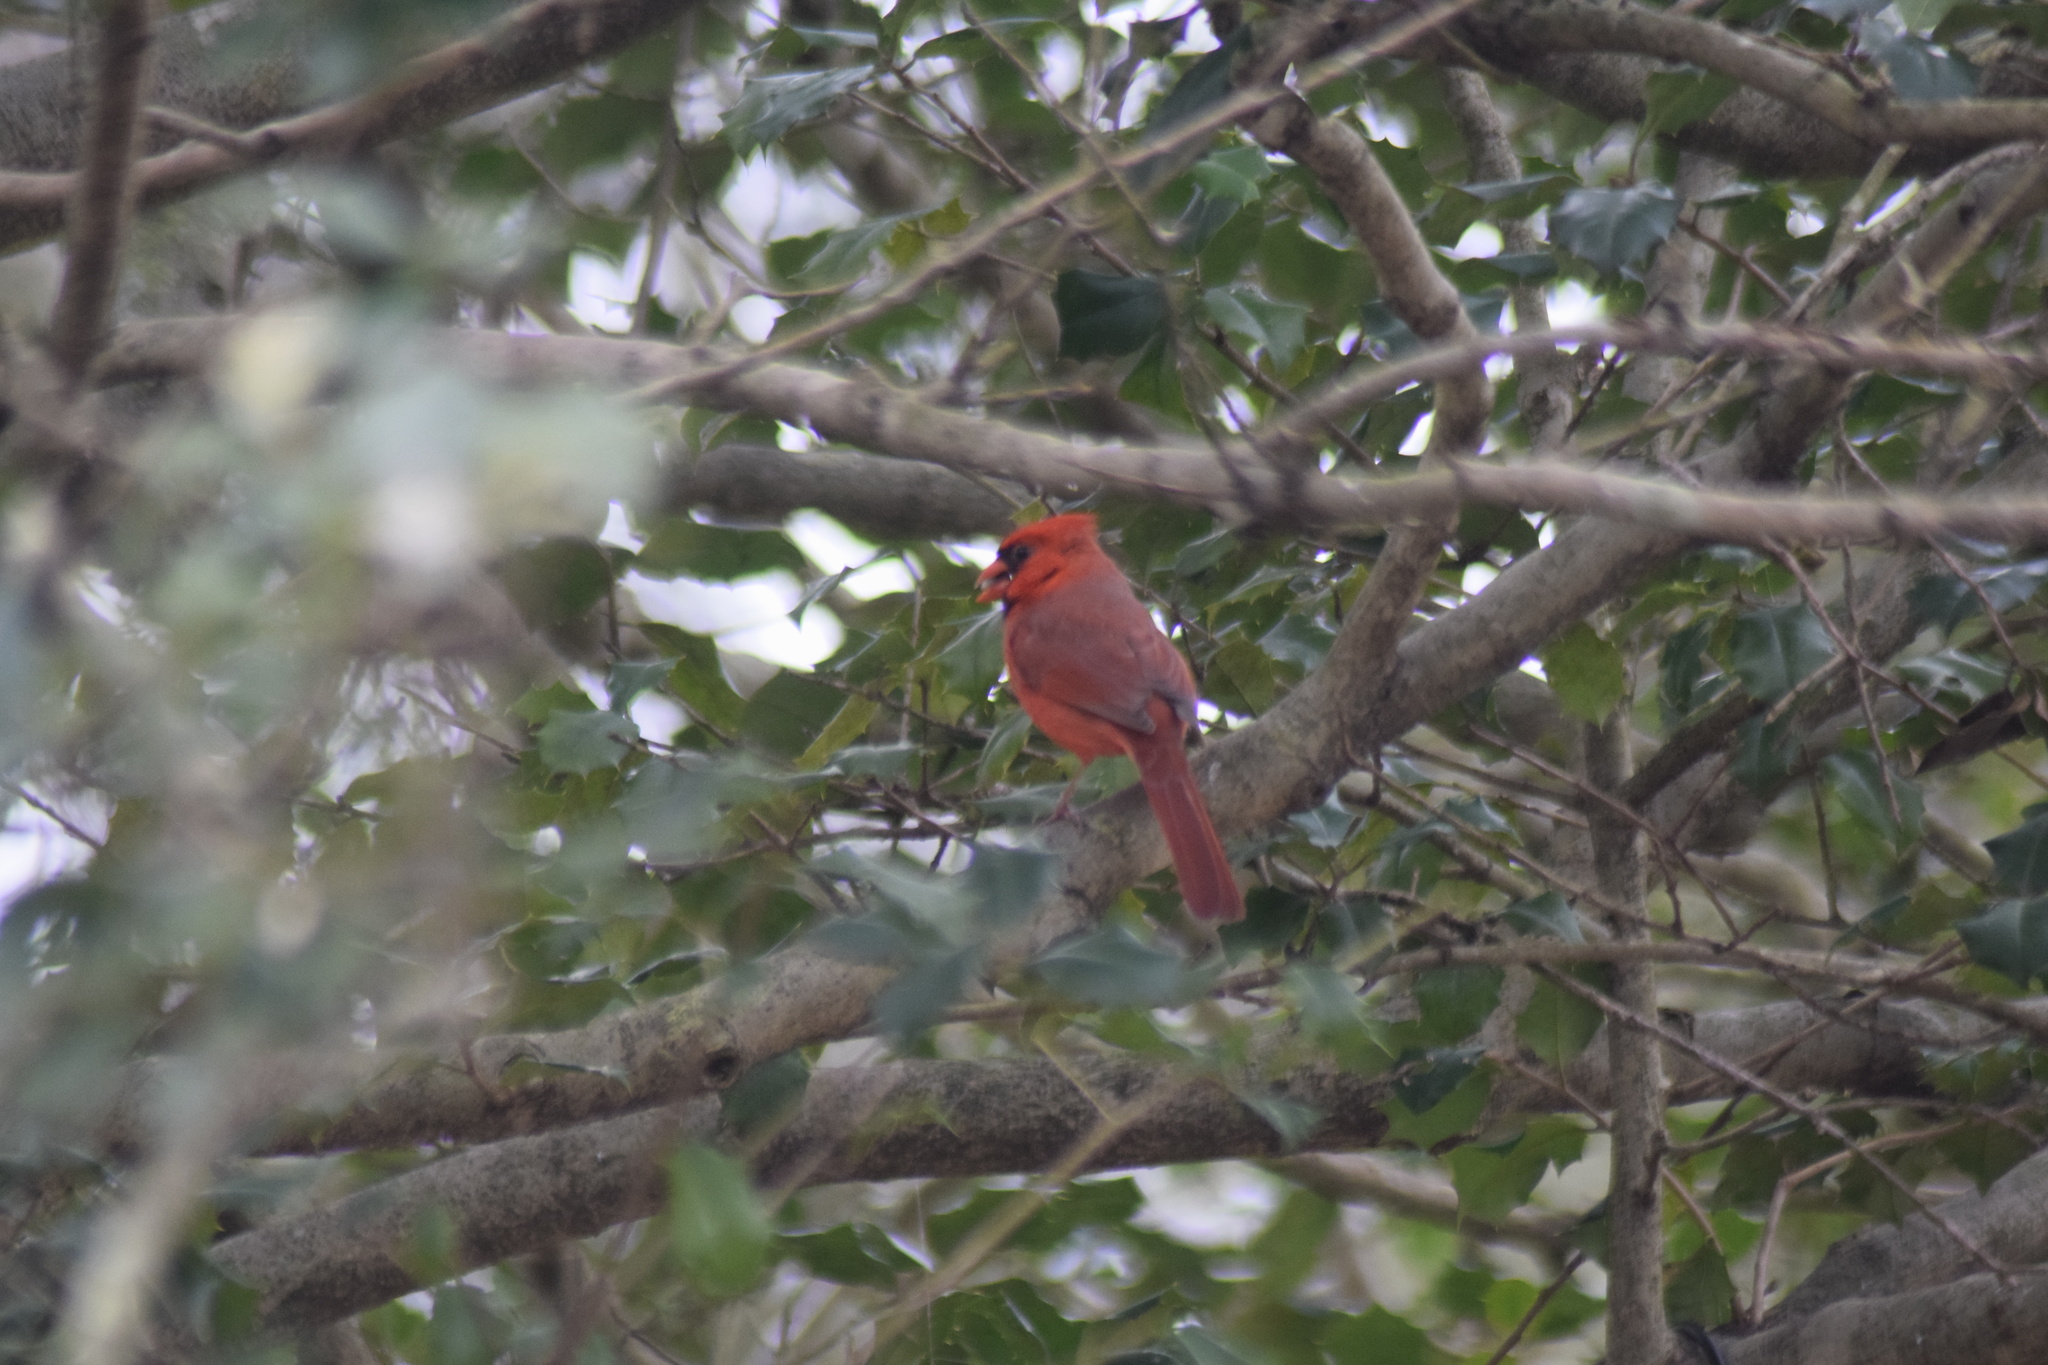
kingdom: Animalia
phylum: Chordata
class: Aves
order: Passeriformes
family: Cardinalidae
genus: Cardinalis
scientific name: Cardinalis cardinalis
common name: Northern cardinal
